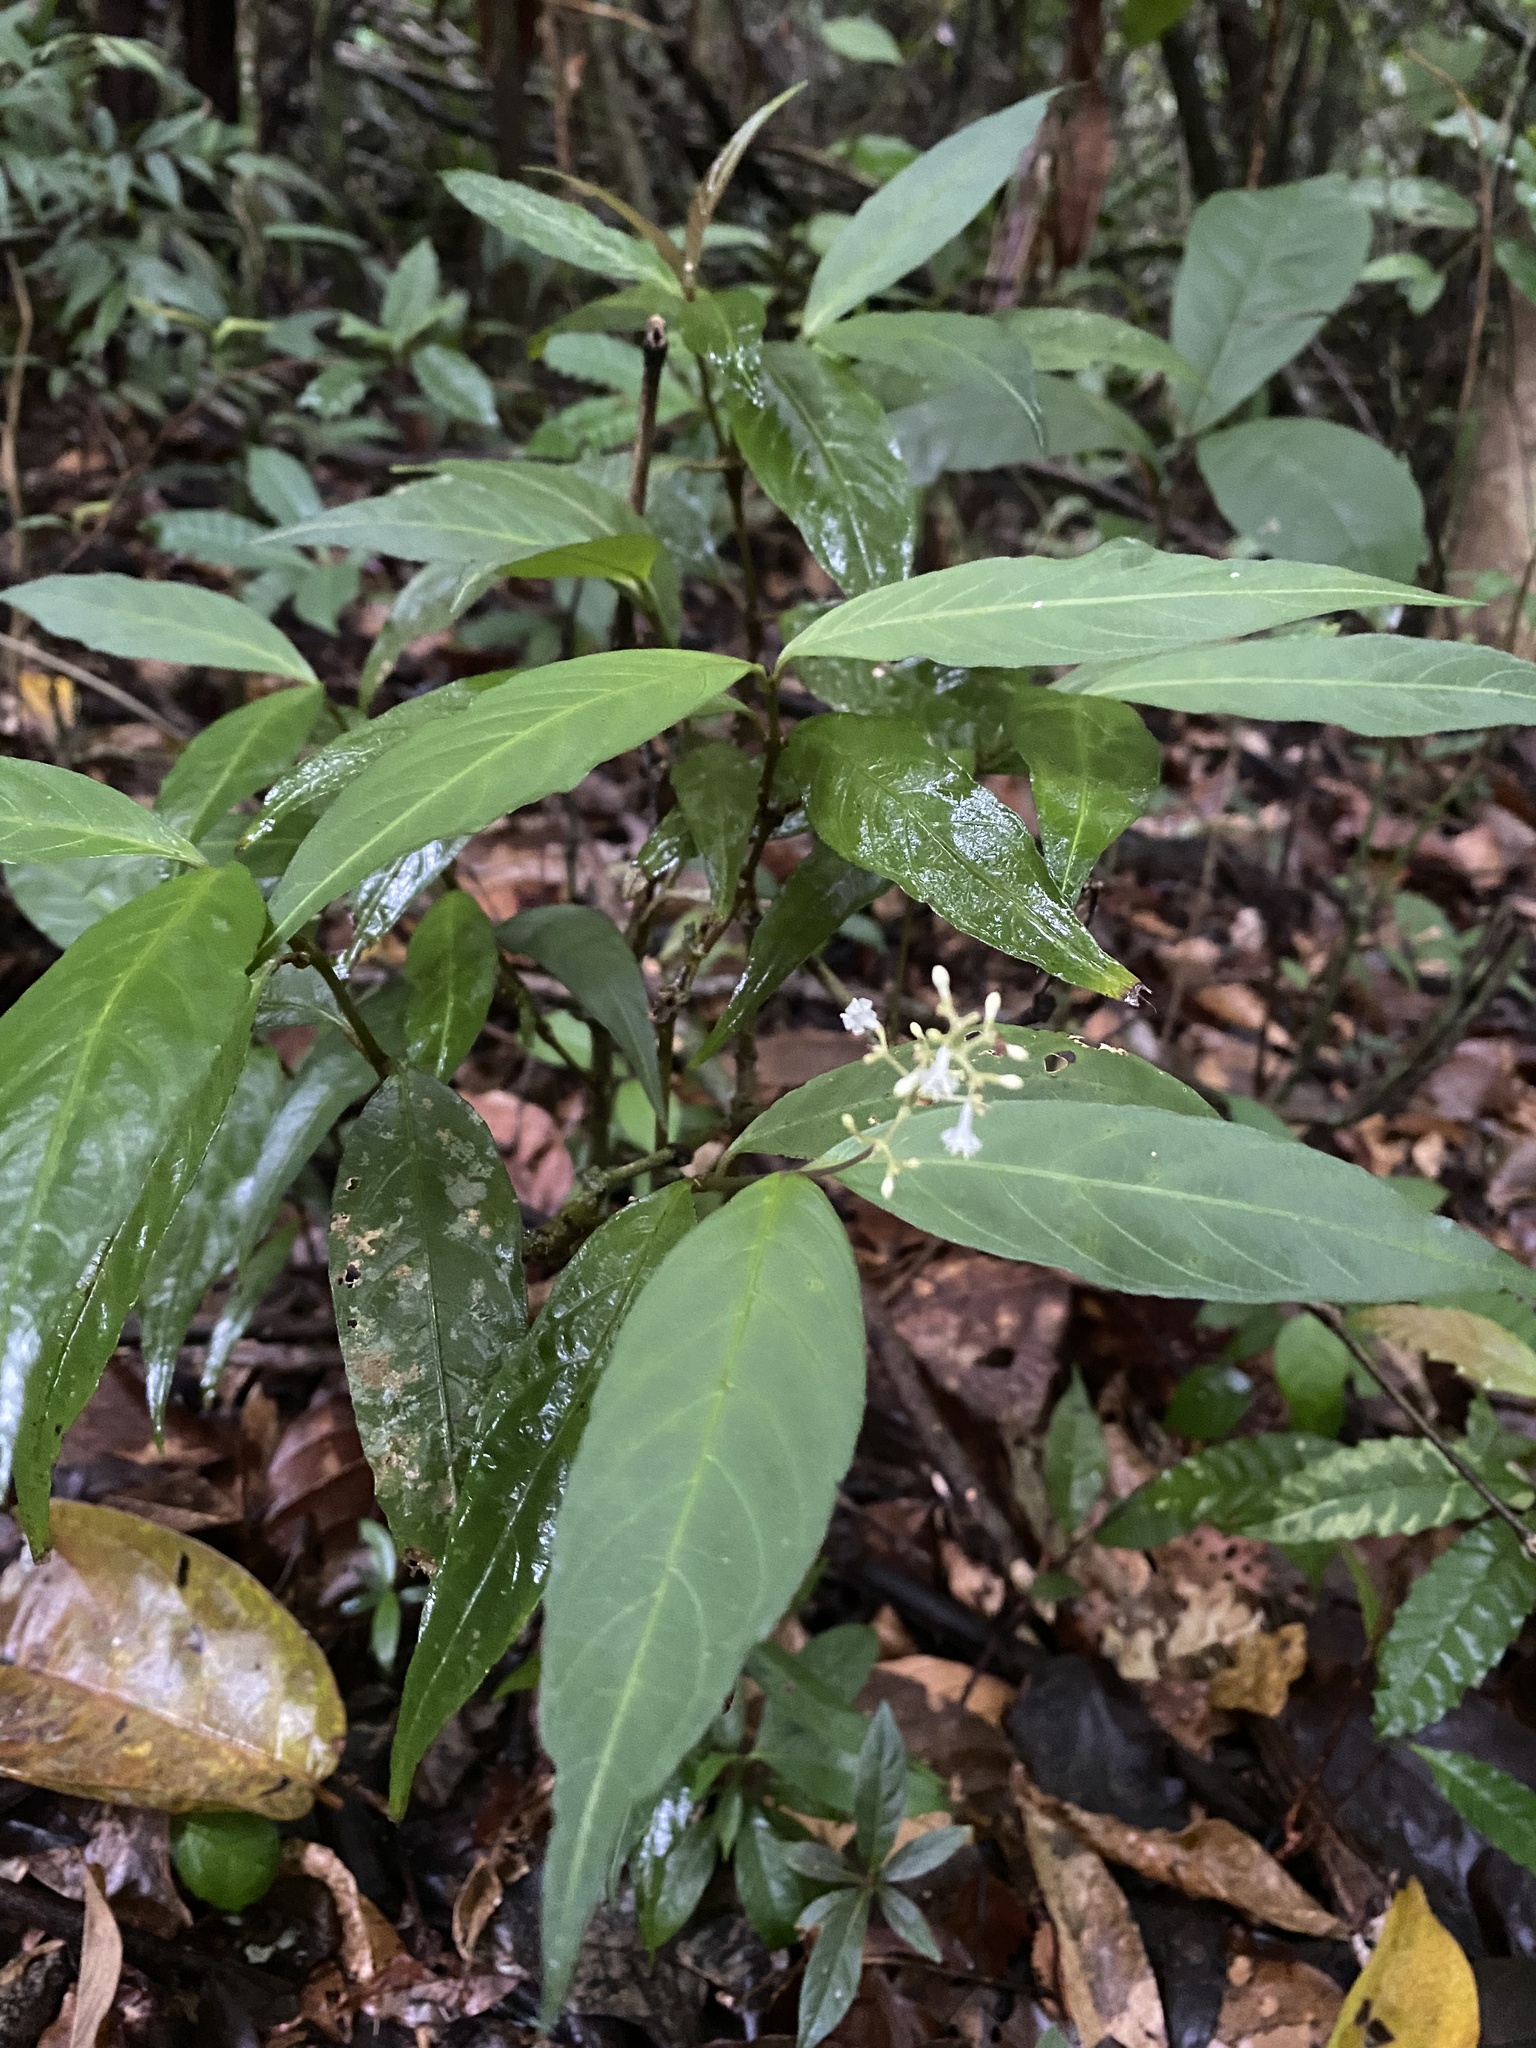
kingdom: Plantae
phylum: Tracheophyta
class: Magnoliopsida
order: Gentianales
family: Rubiaceae
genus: Palicourea
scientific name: Palicourea deflexa
